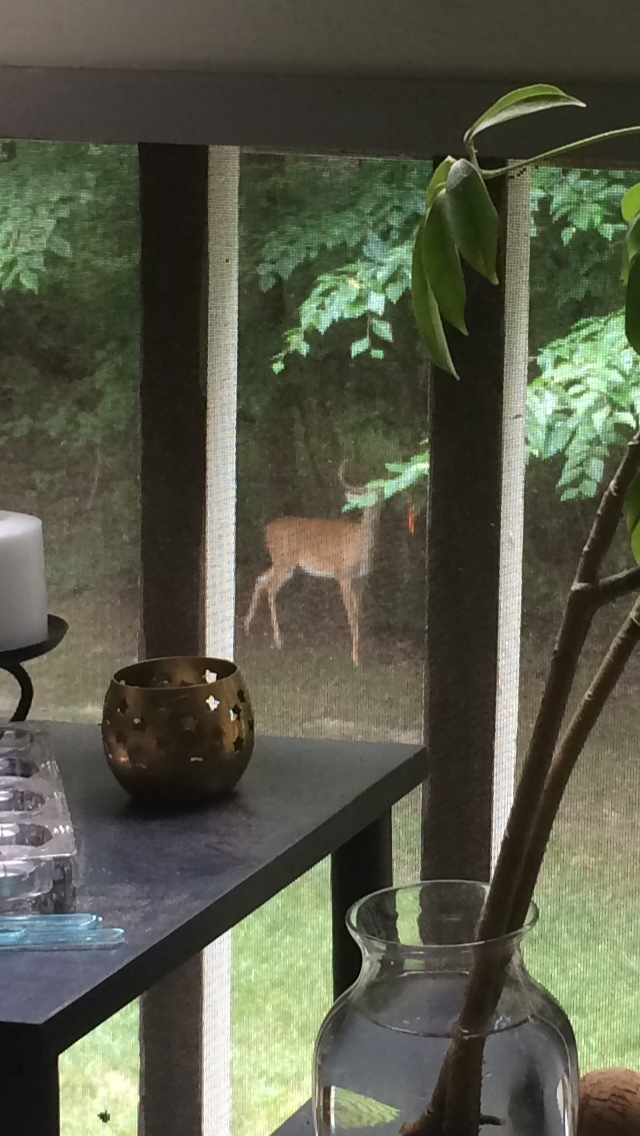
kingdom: Animalia
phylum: Chordata
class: Mammalia
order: Artiodactyla
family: Cervidae
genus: Odocoileus
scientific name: Odocoileus virginianus
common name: White-tailed deer
